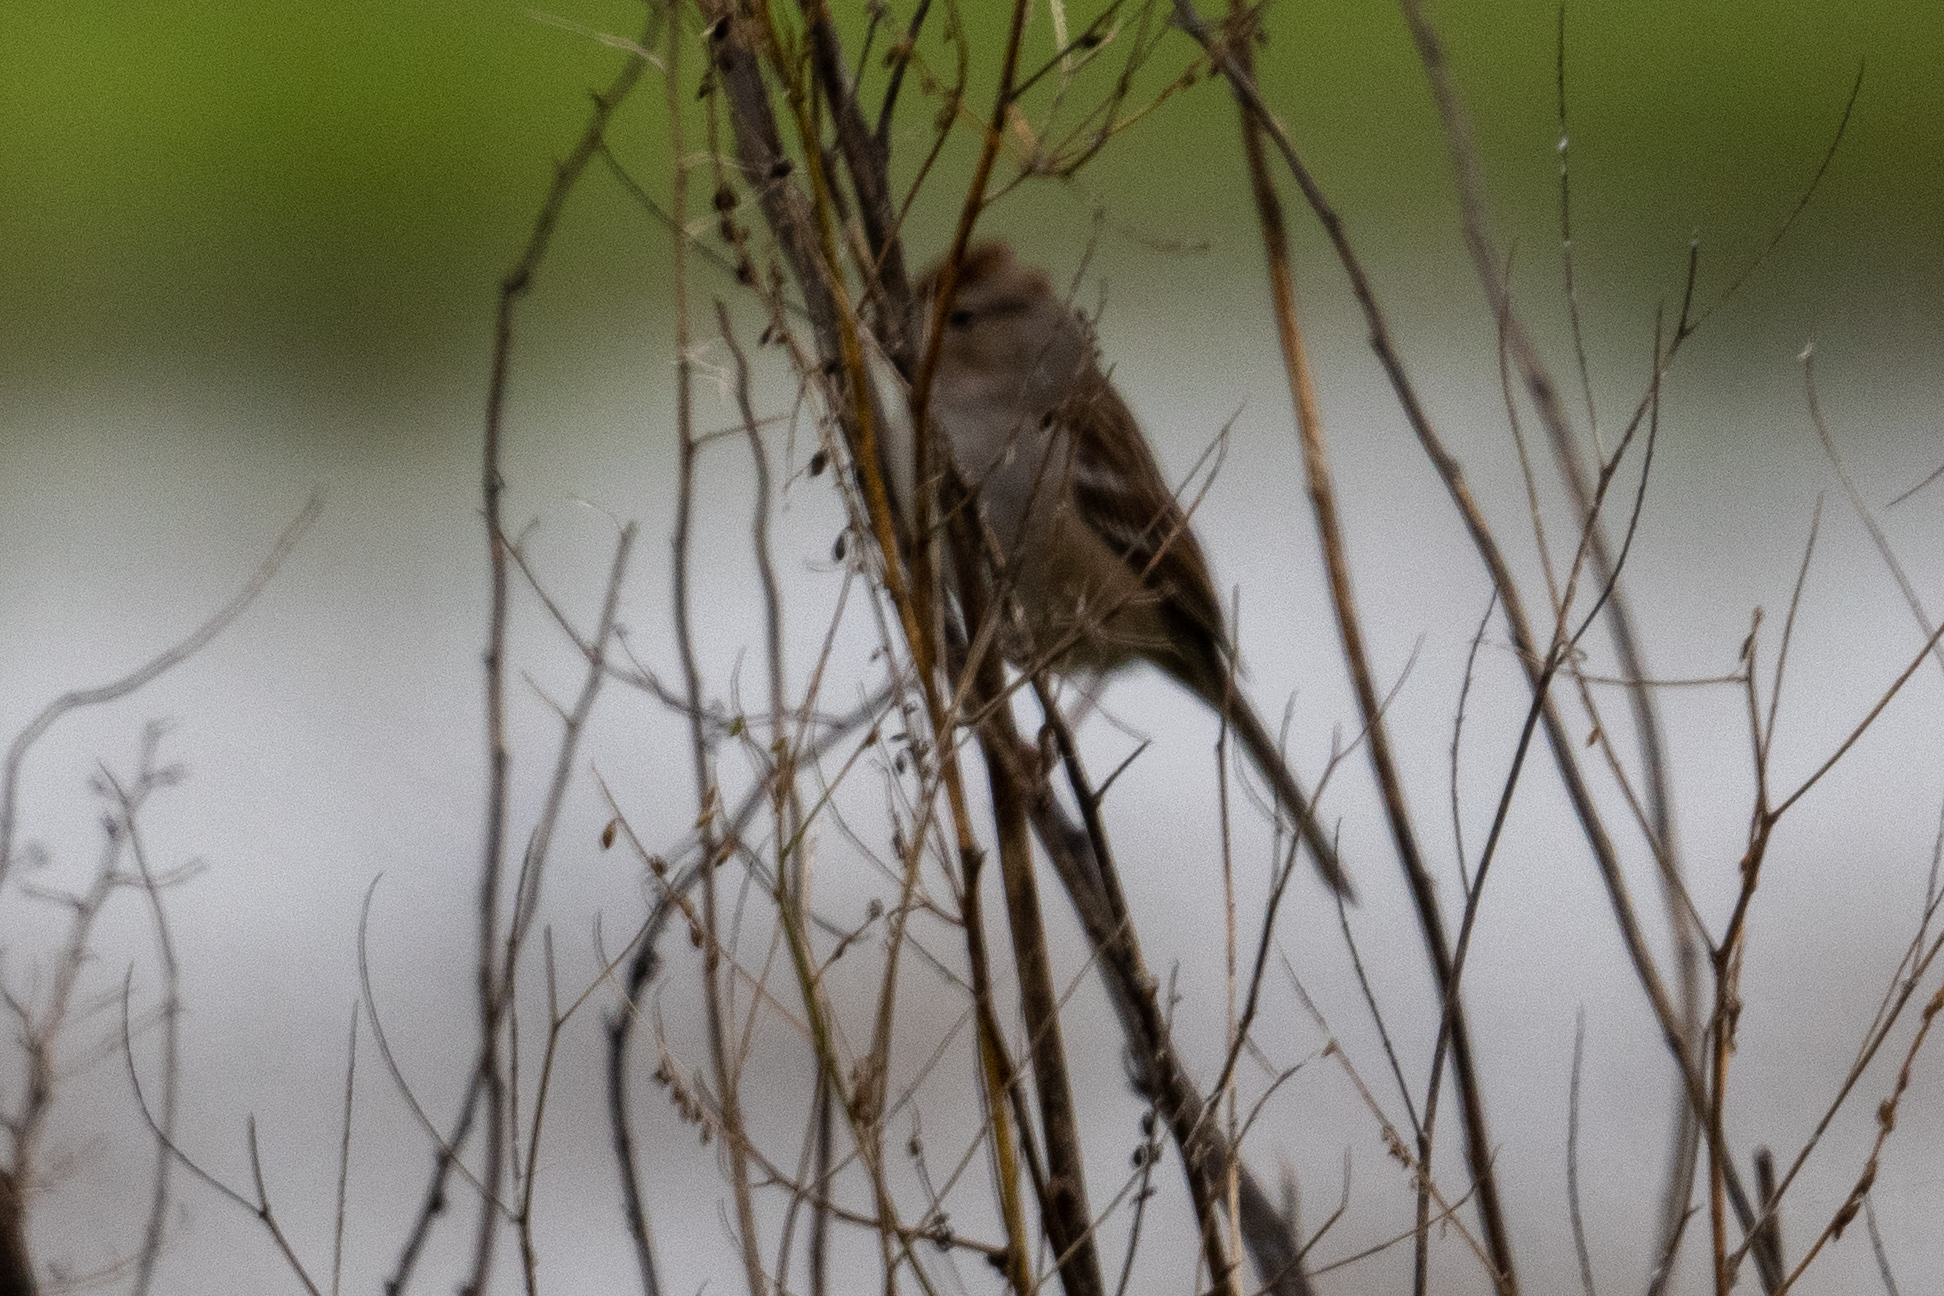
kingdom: Animalia
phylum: Chordata
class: Aves
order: Passeriformes
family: Passerellidae
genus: Zonotrichia
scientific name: Zonotrichia leucophrys
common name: White-crowned sparrow
